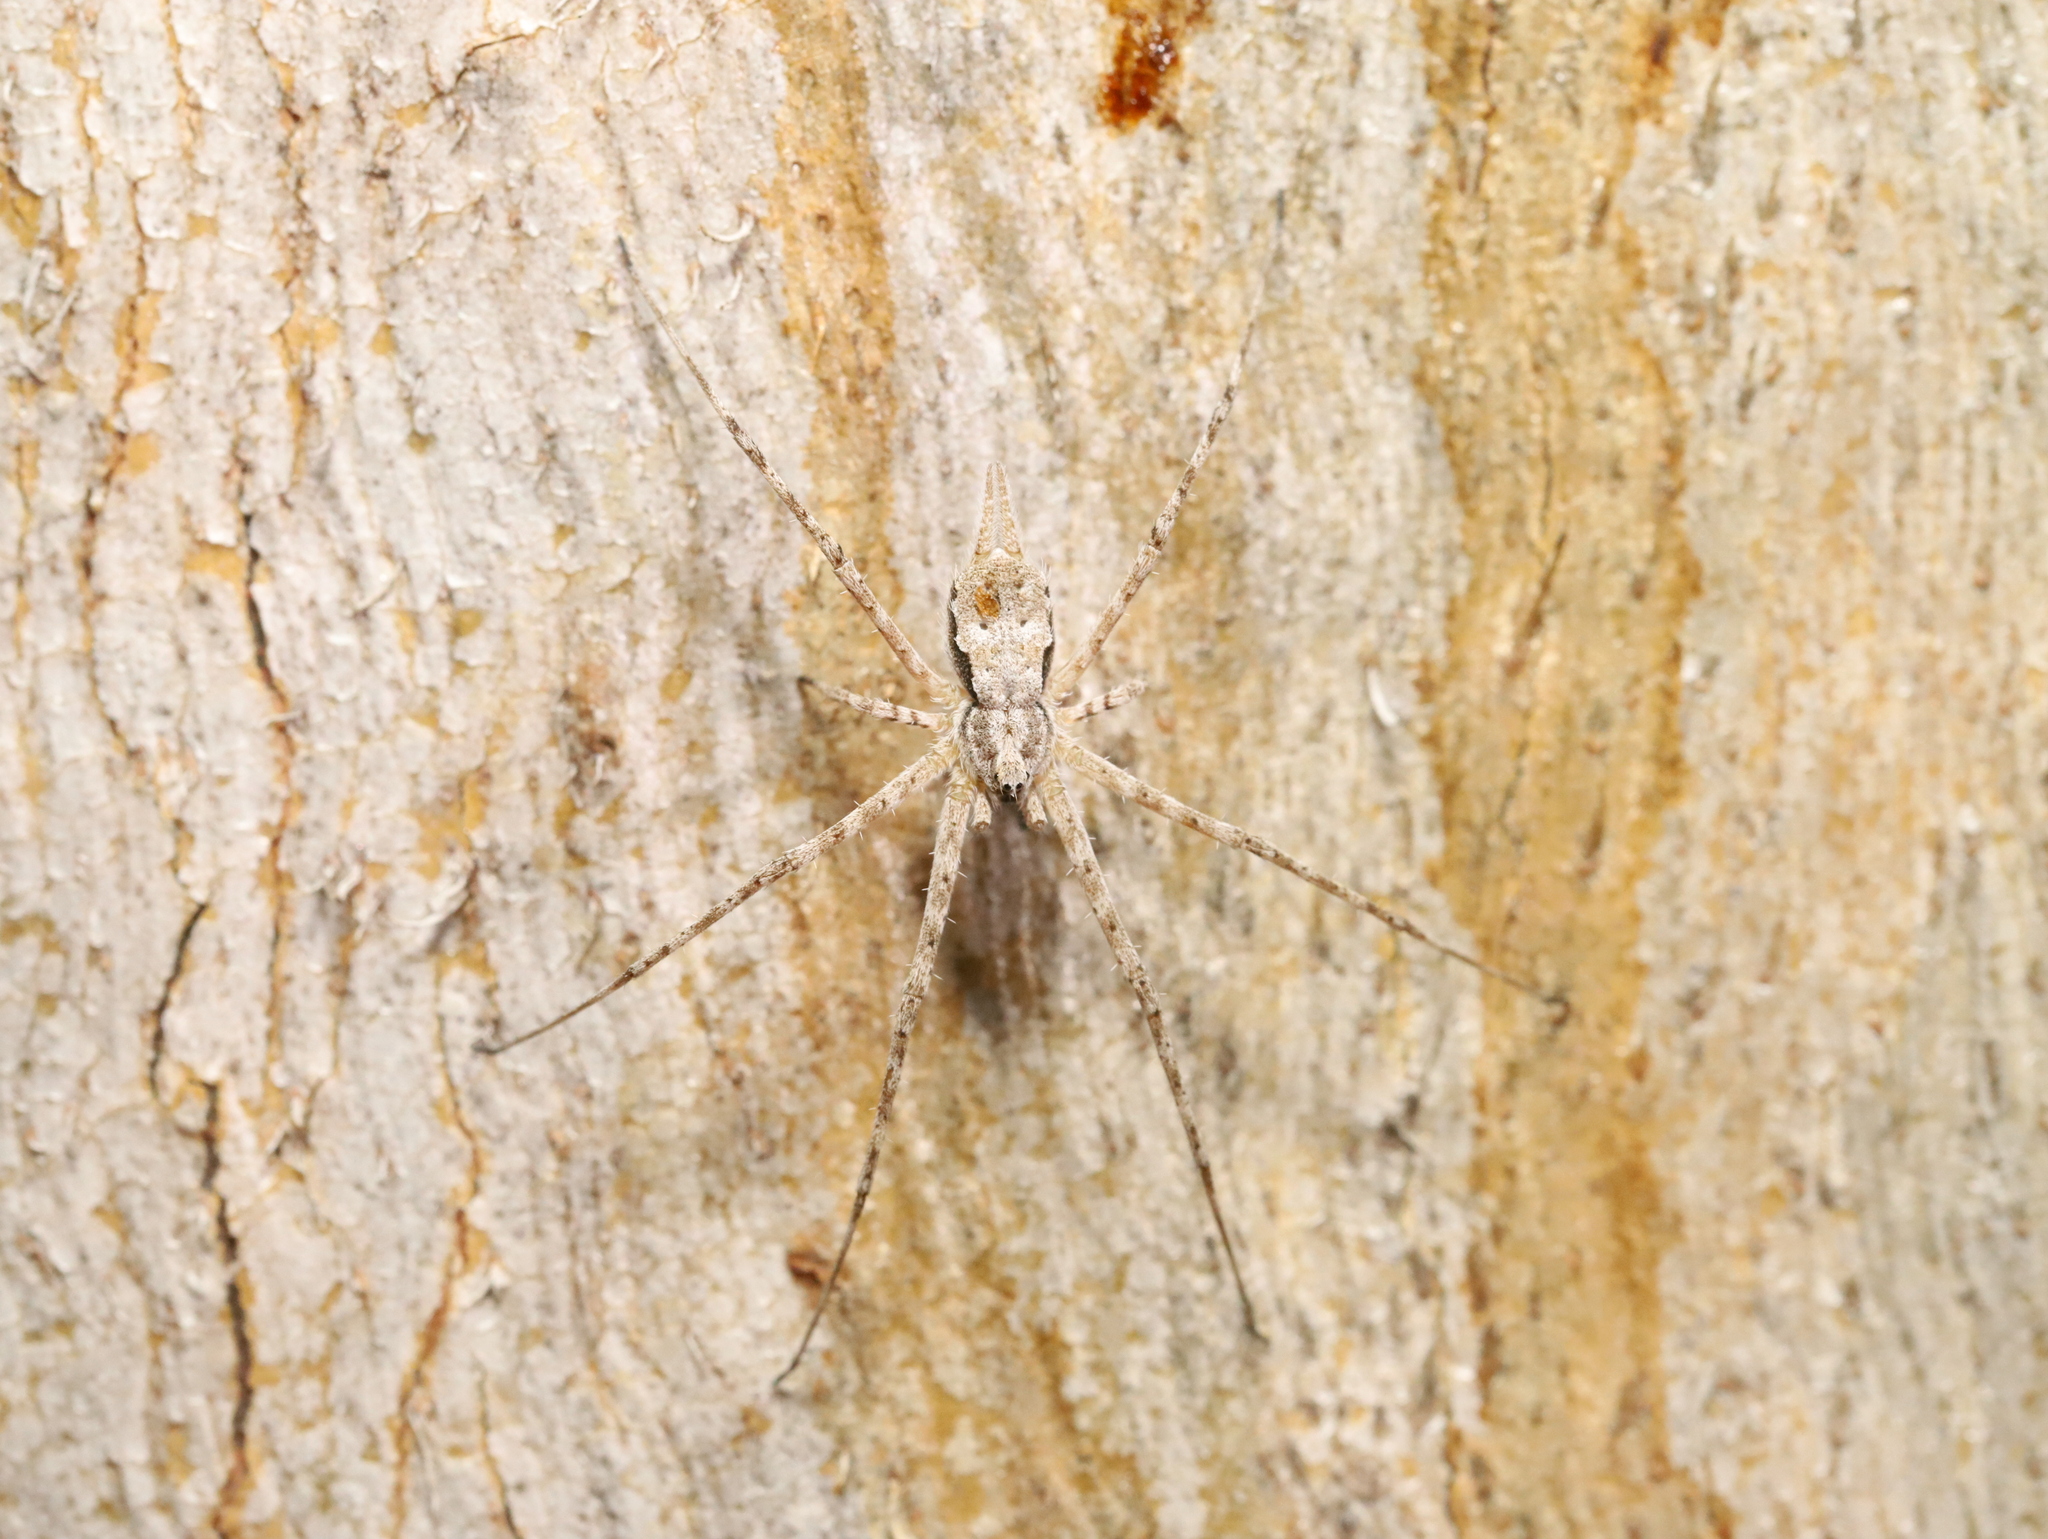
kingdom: Animalia
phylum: Arthropoda
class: Arachnida
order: Araneae
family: Hersiliidae
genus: Tamopsis
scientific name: Tamopsis fickerti
